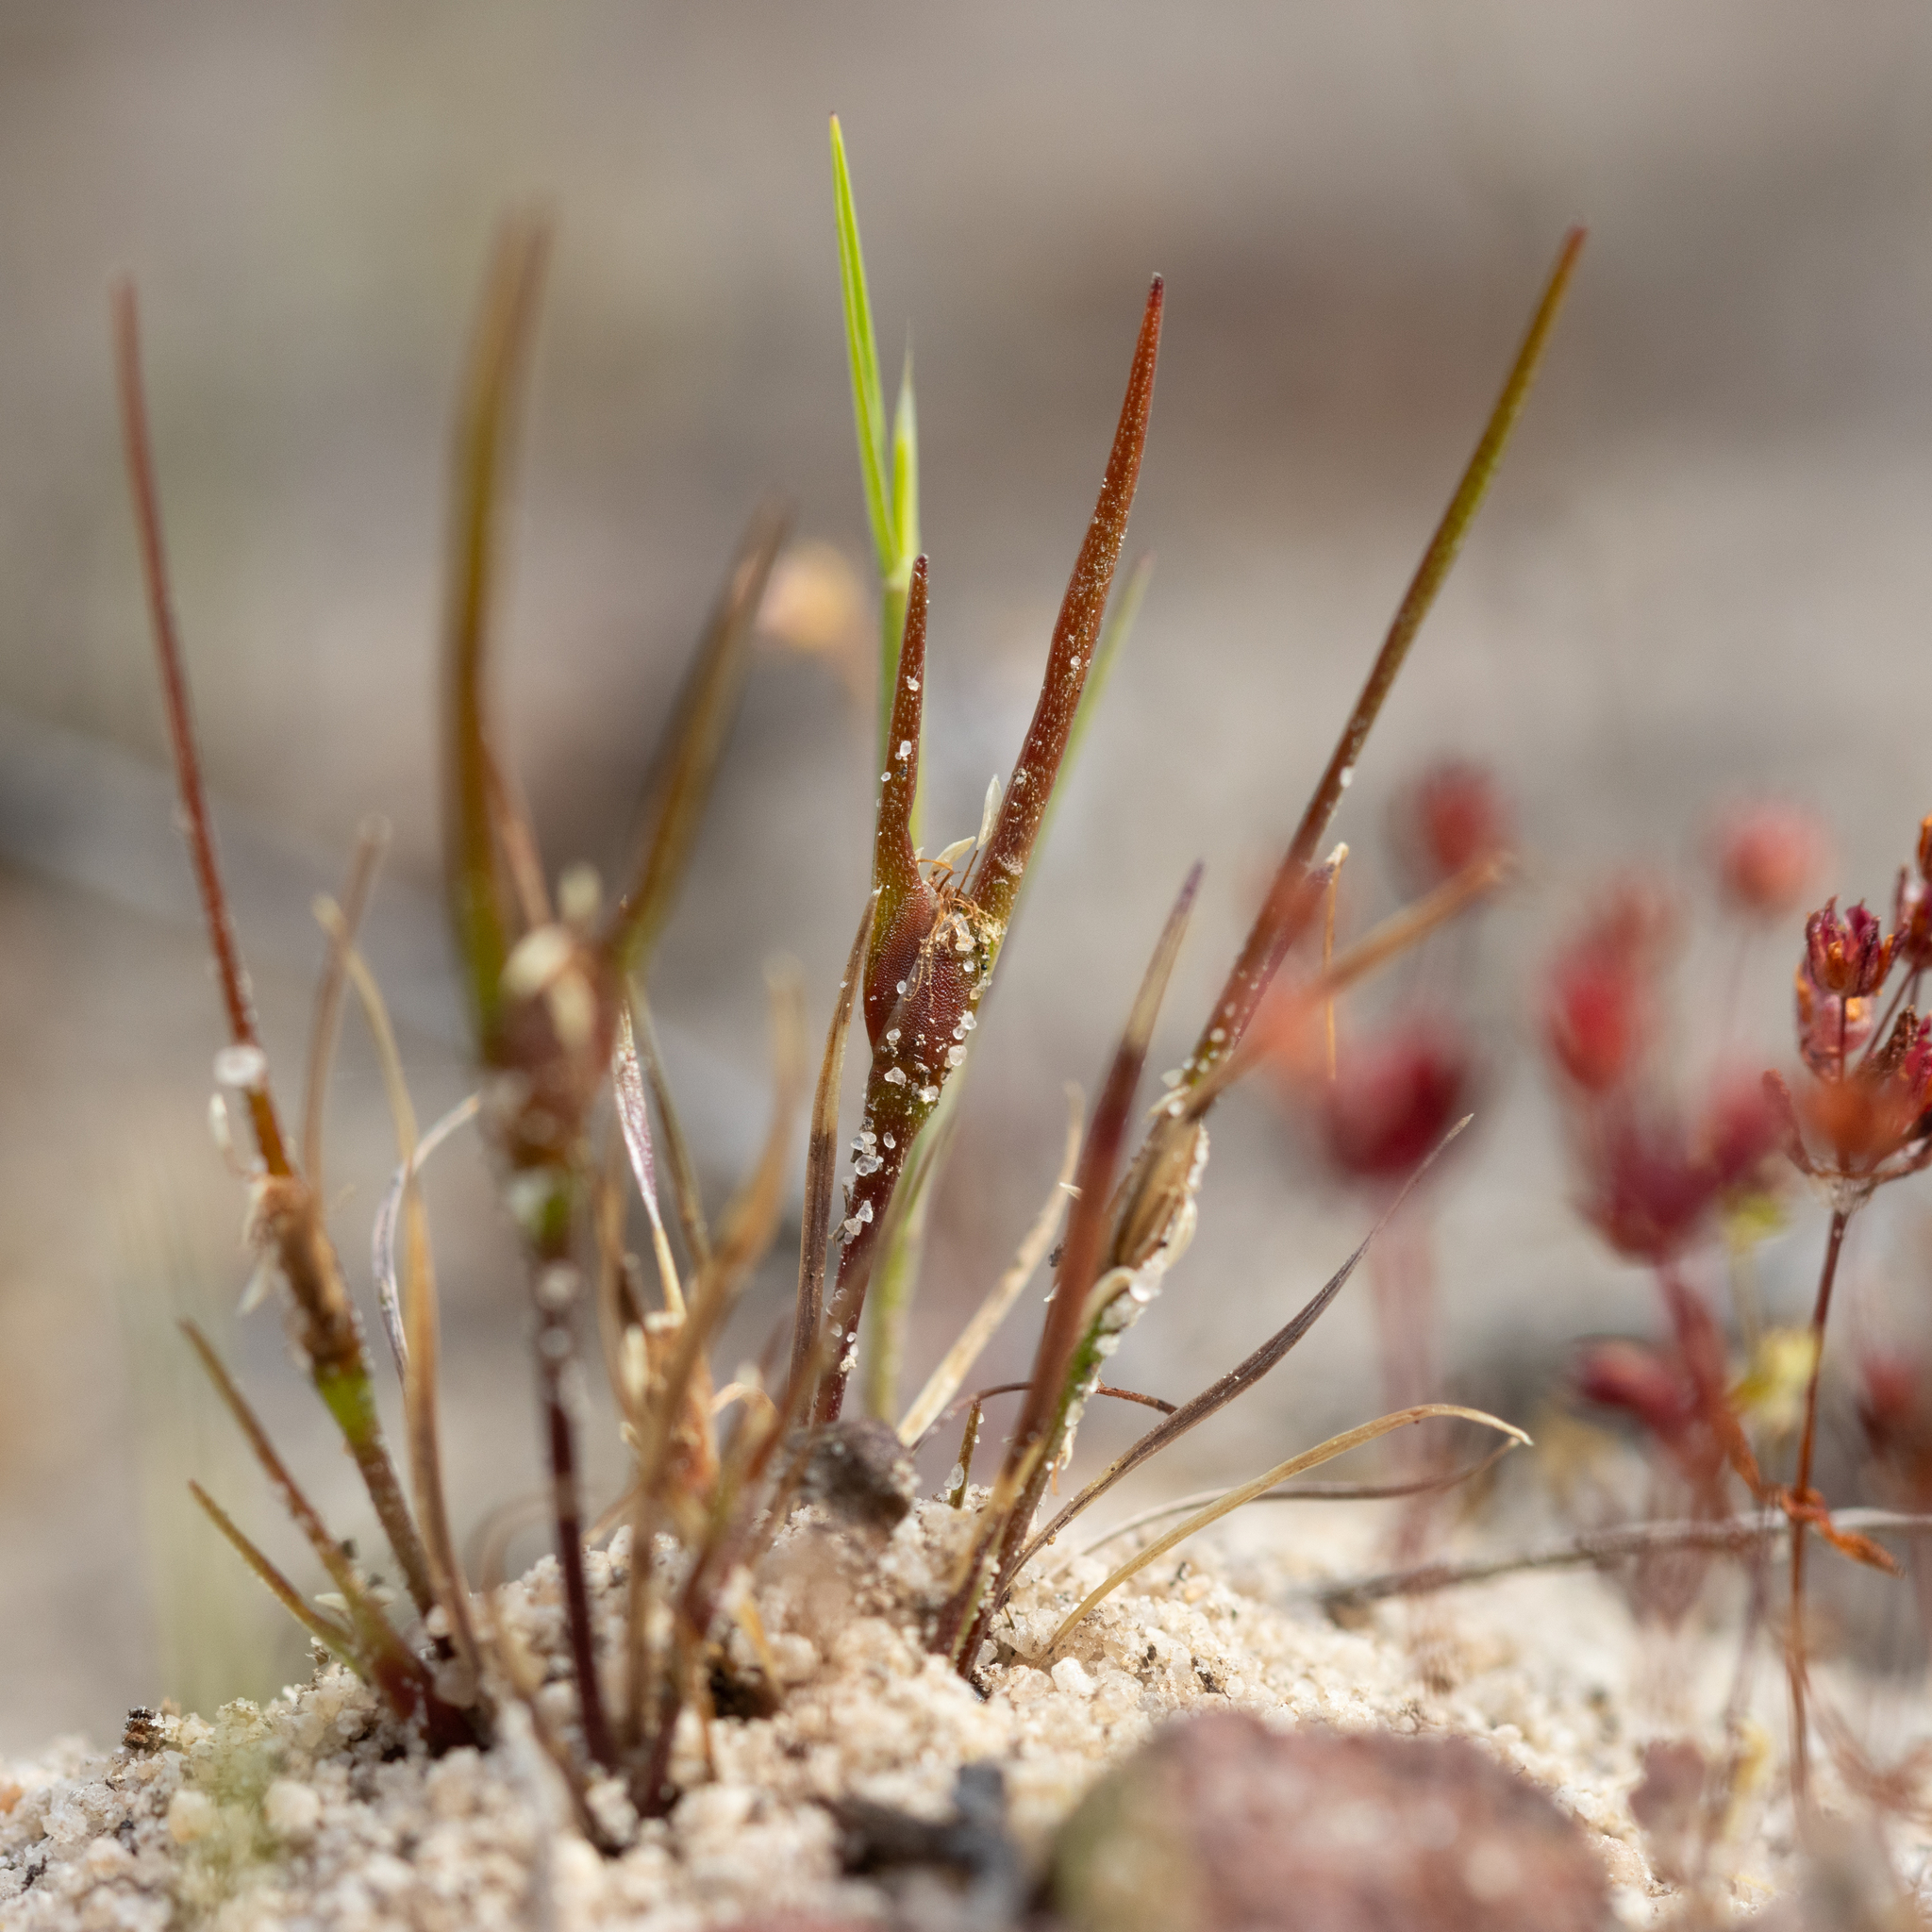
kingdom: Plantae
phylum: Tracheophyta
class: Liliopsida
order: Poales
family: Restionaceae
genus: Centrolepis
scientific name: Centrolepis aristata
